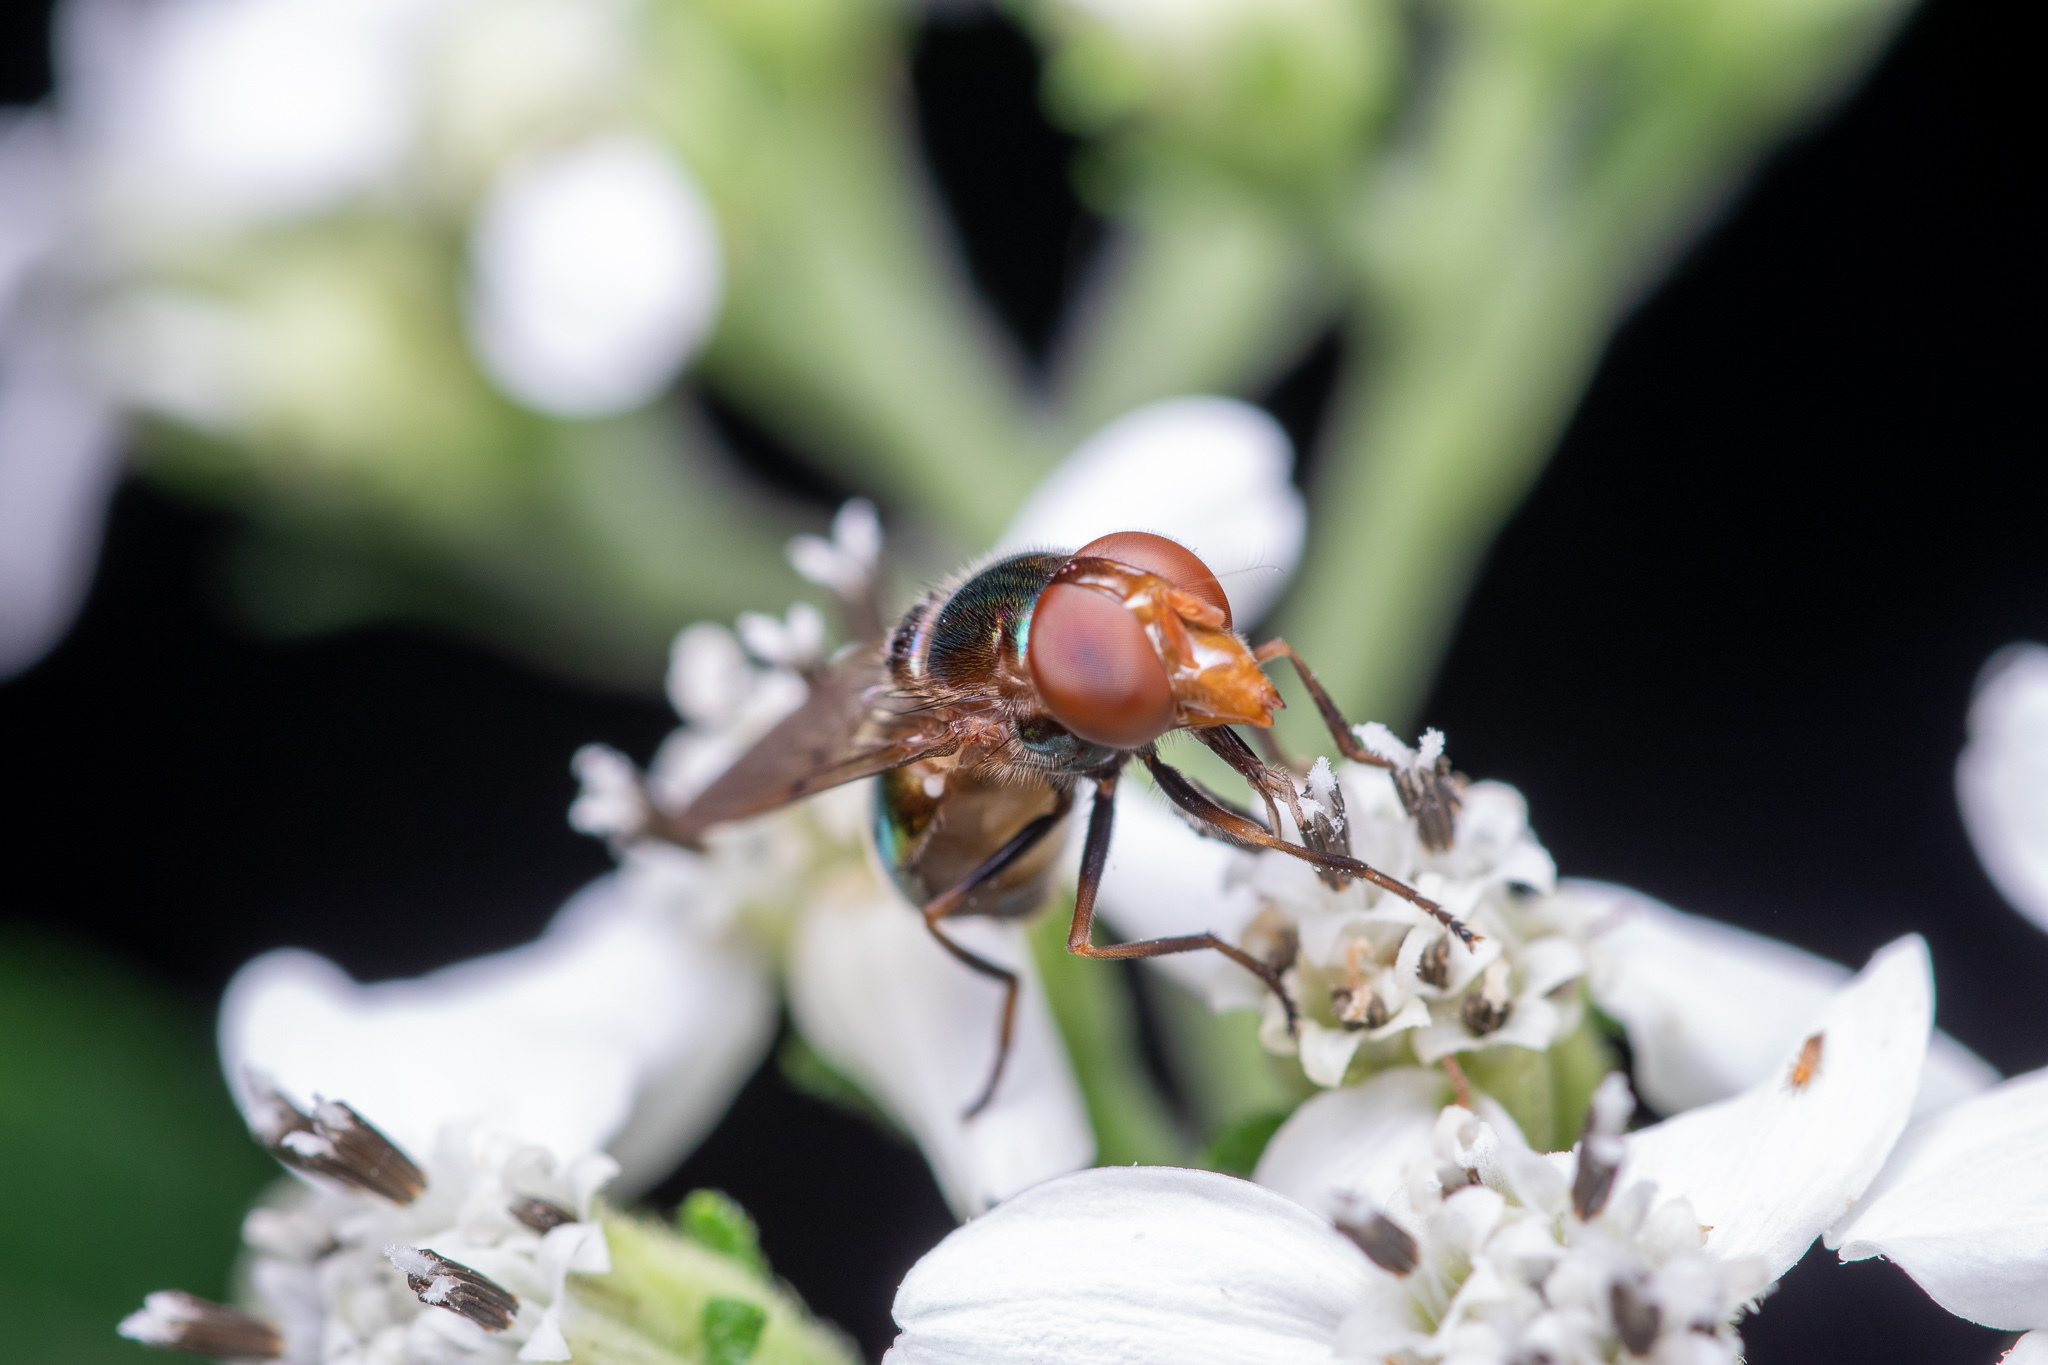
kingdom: Animalia
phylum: Arthropoda
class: Insecta
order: Diptera
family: Syrphidae
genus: Copestylum
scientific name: Copestylum vesicularium
